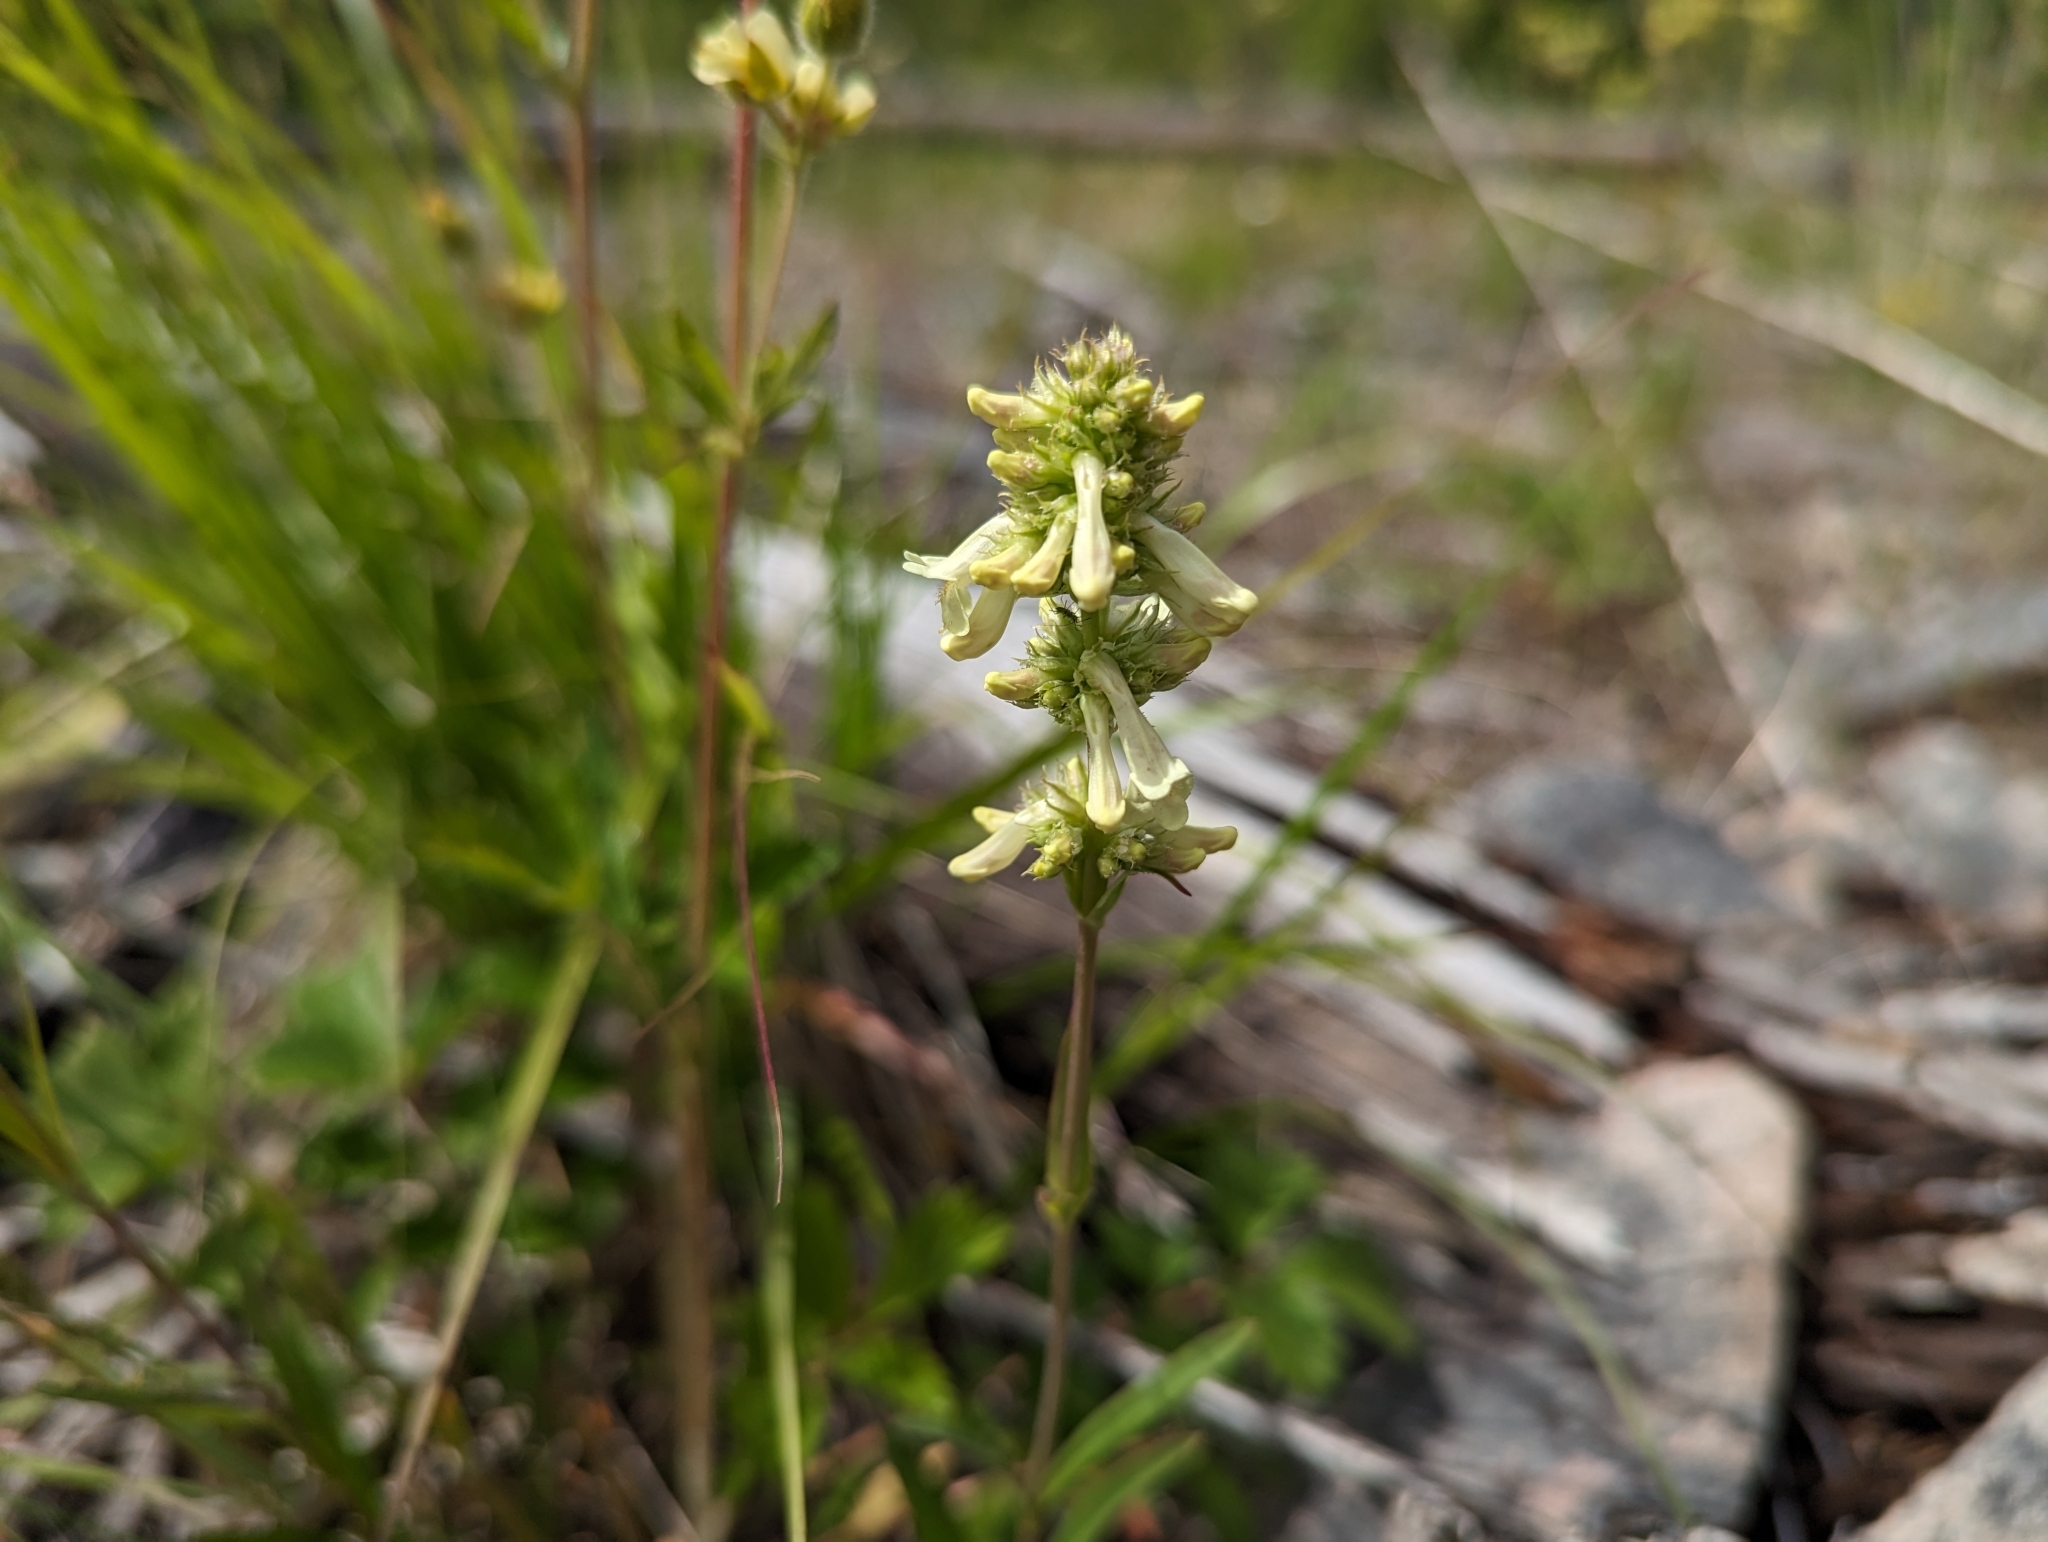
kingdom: Plantae
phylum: Tracheophyta
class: Magnoliopsida
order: Lamiales
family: Plantaginaceae
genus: Penstemon
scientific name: Penstemon confertus
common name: Lesser yellow beardtongue
